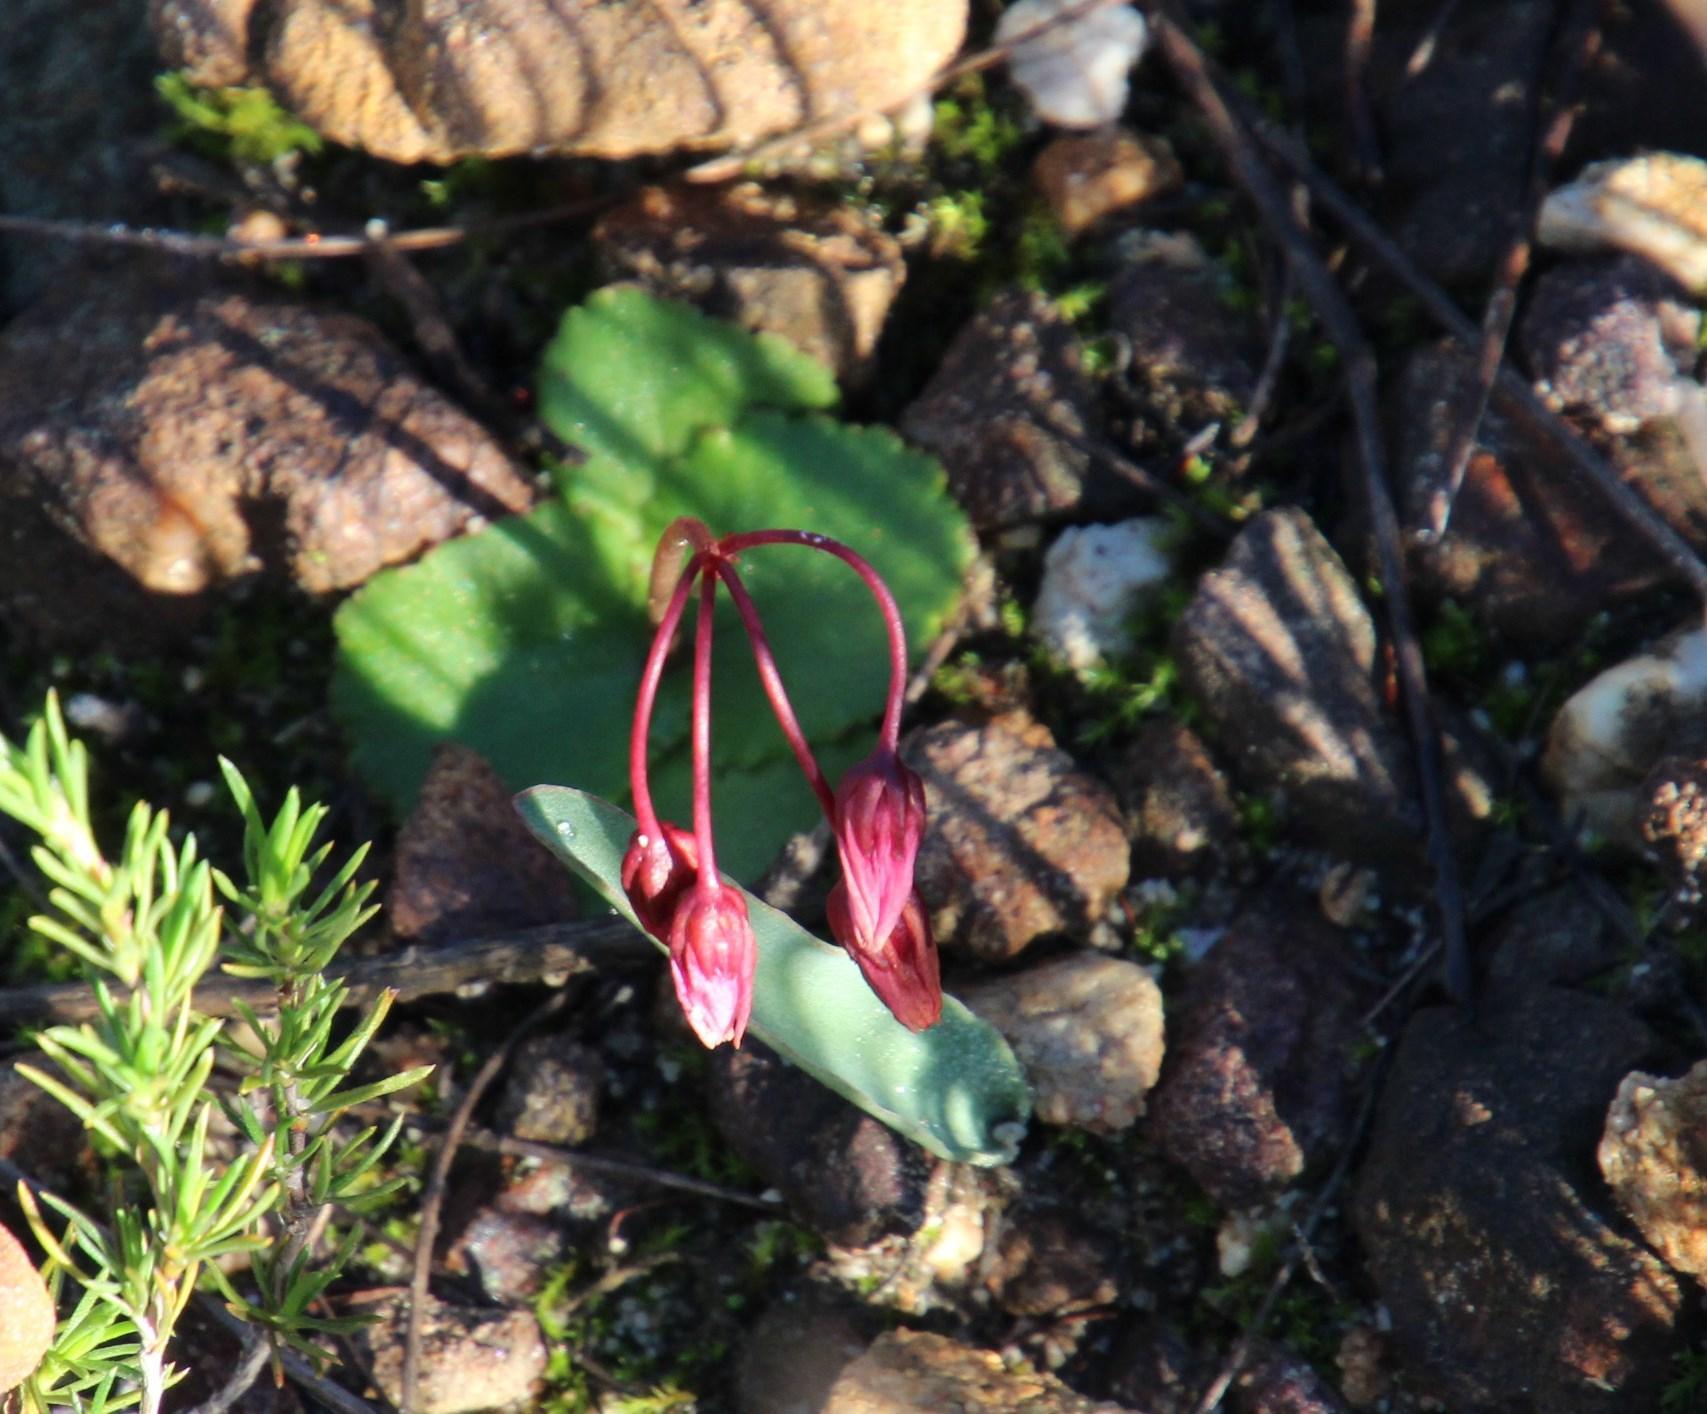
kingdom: Plantae
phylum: Tracheophyta
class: Magnoliopsida
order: Saxifragales
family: Crassulaceae
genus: Crassula
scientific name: Crassula capensis
